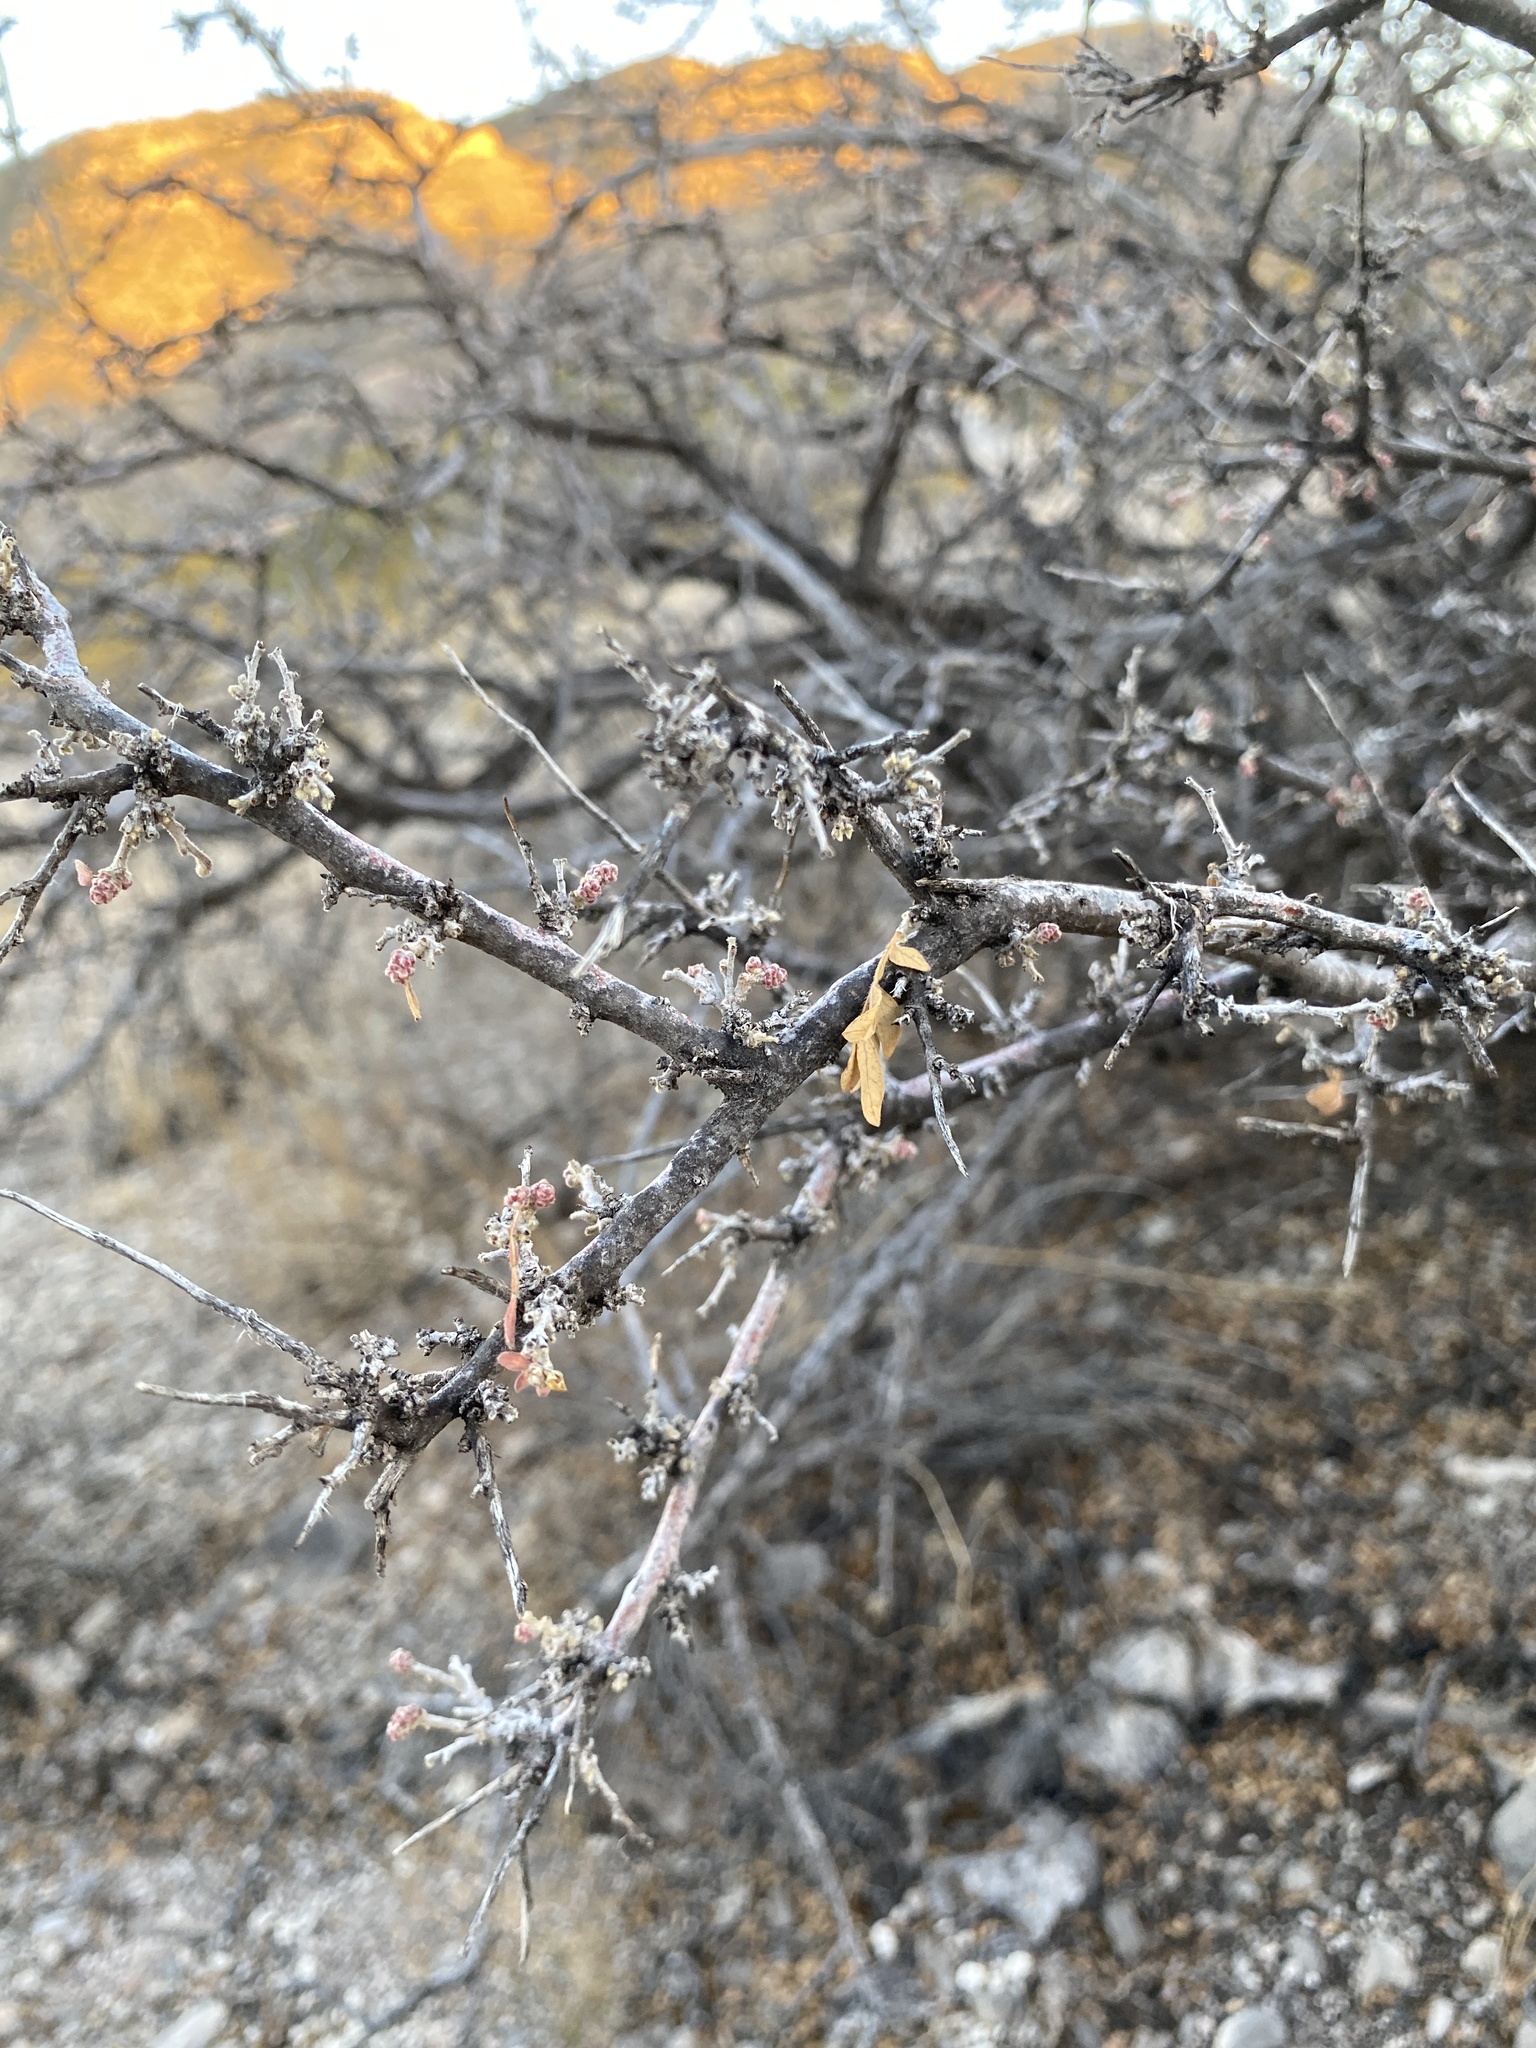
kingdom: Plantae
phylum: Tracheophyta
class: Magnoliopsida
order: Sapindales
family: Anacardiaceae
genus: Rhus
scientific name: Rhus microphylla
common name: Desert sumac
